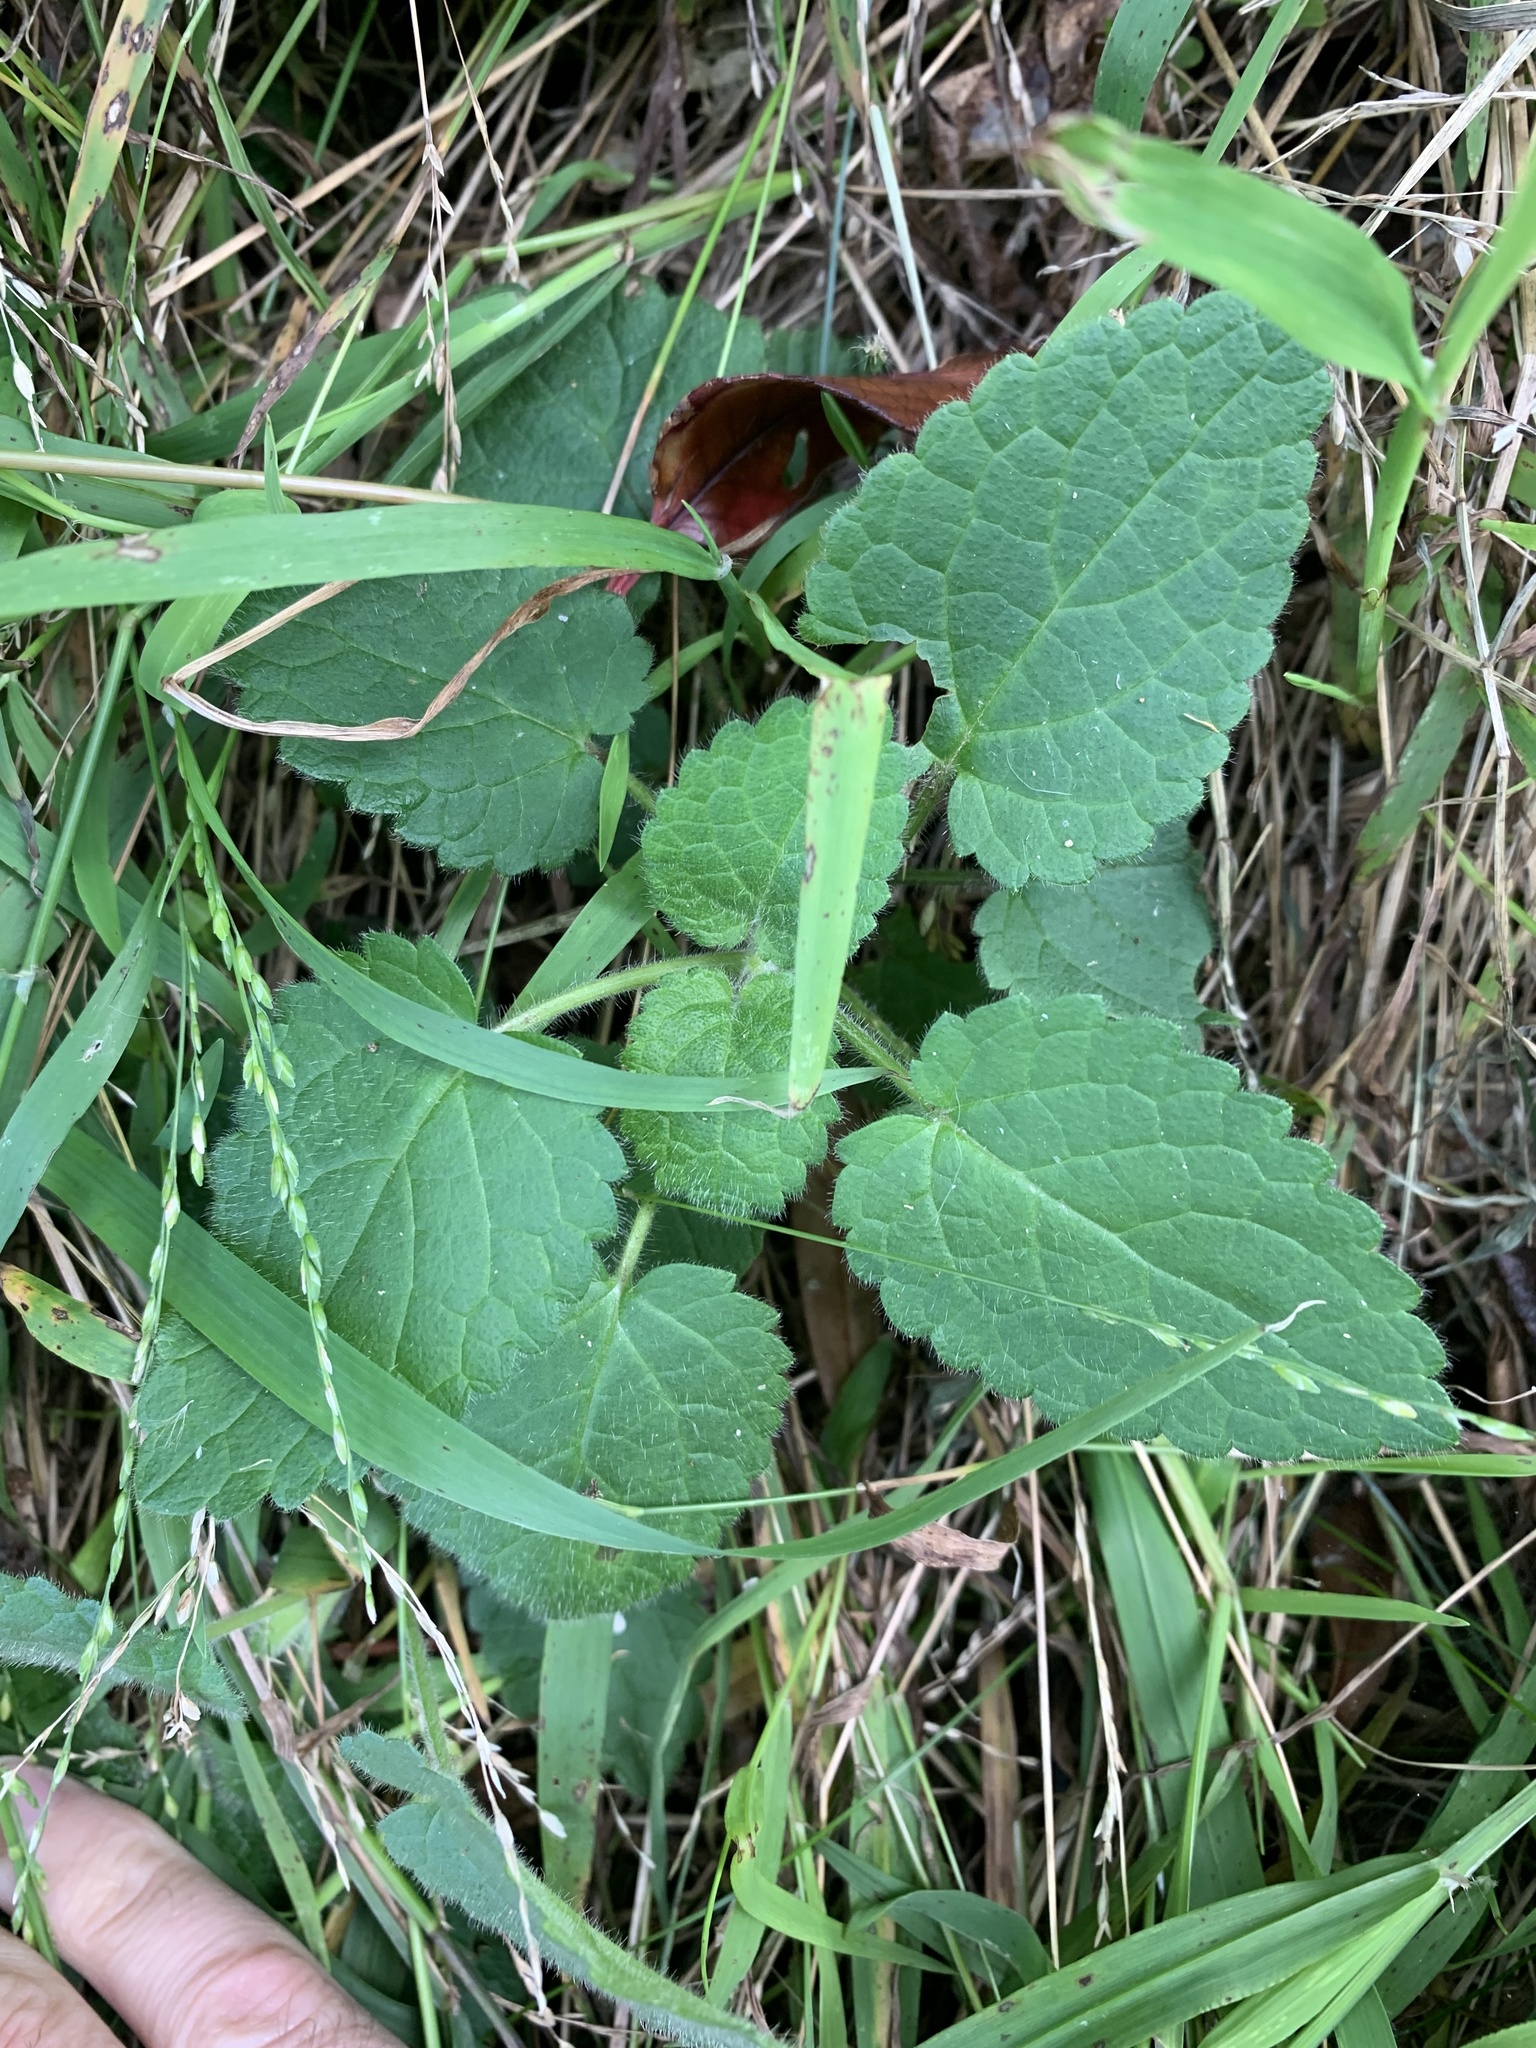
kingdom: Plantae
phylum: Tracheophyta
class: Magnoliopsida
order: Lamiales
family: Lamiaceae
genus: Stachys
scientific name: Stachys sylvatica
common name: Hedge woundwort
